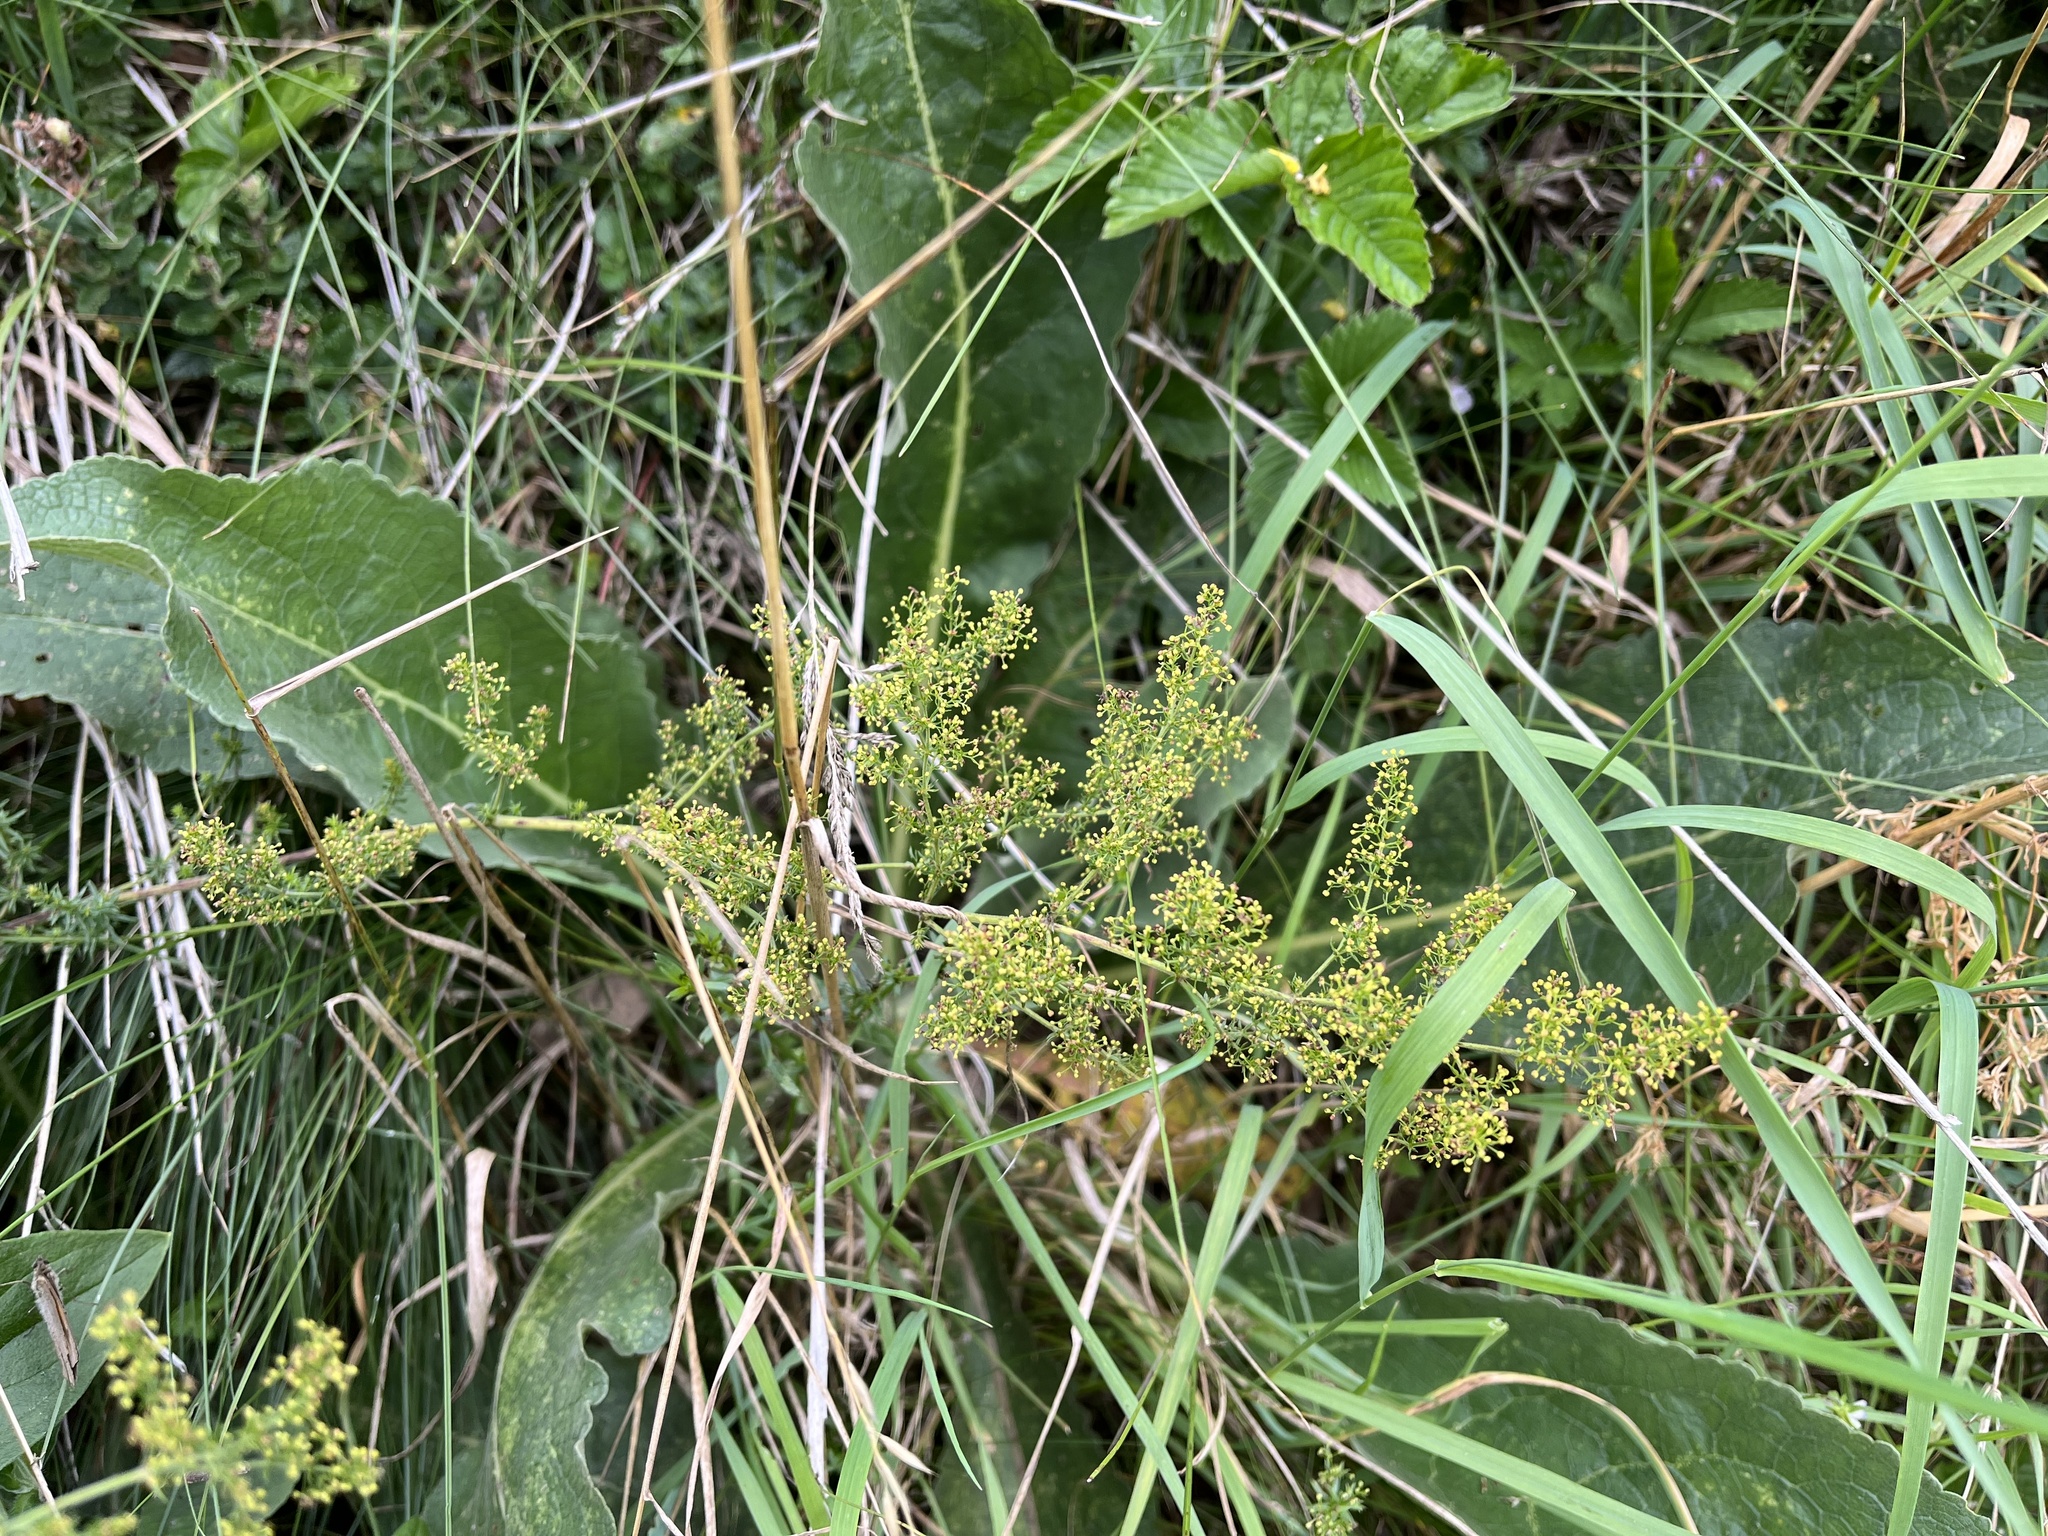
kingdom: Plantae
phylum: Tracheophyta
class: Magnoliopsida
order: Gentianales
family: Rubiaceae
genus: Galium
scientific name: Galium verum
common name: Lady's bedstraw
